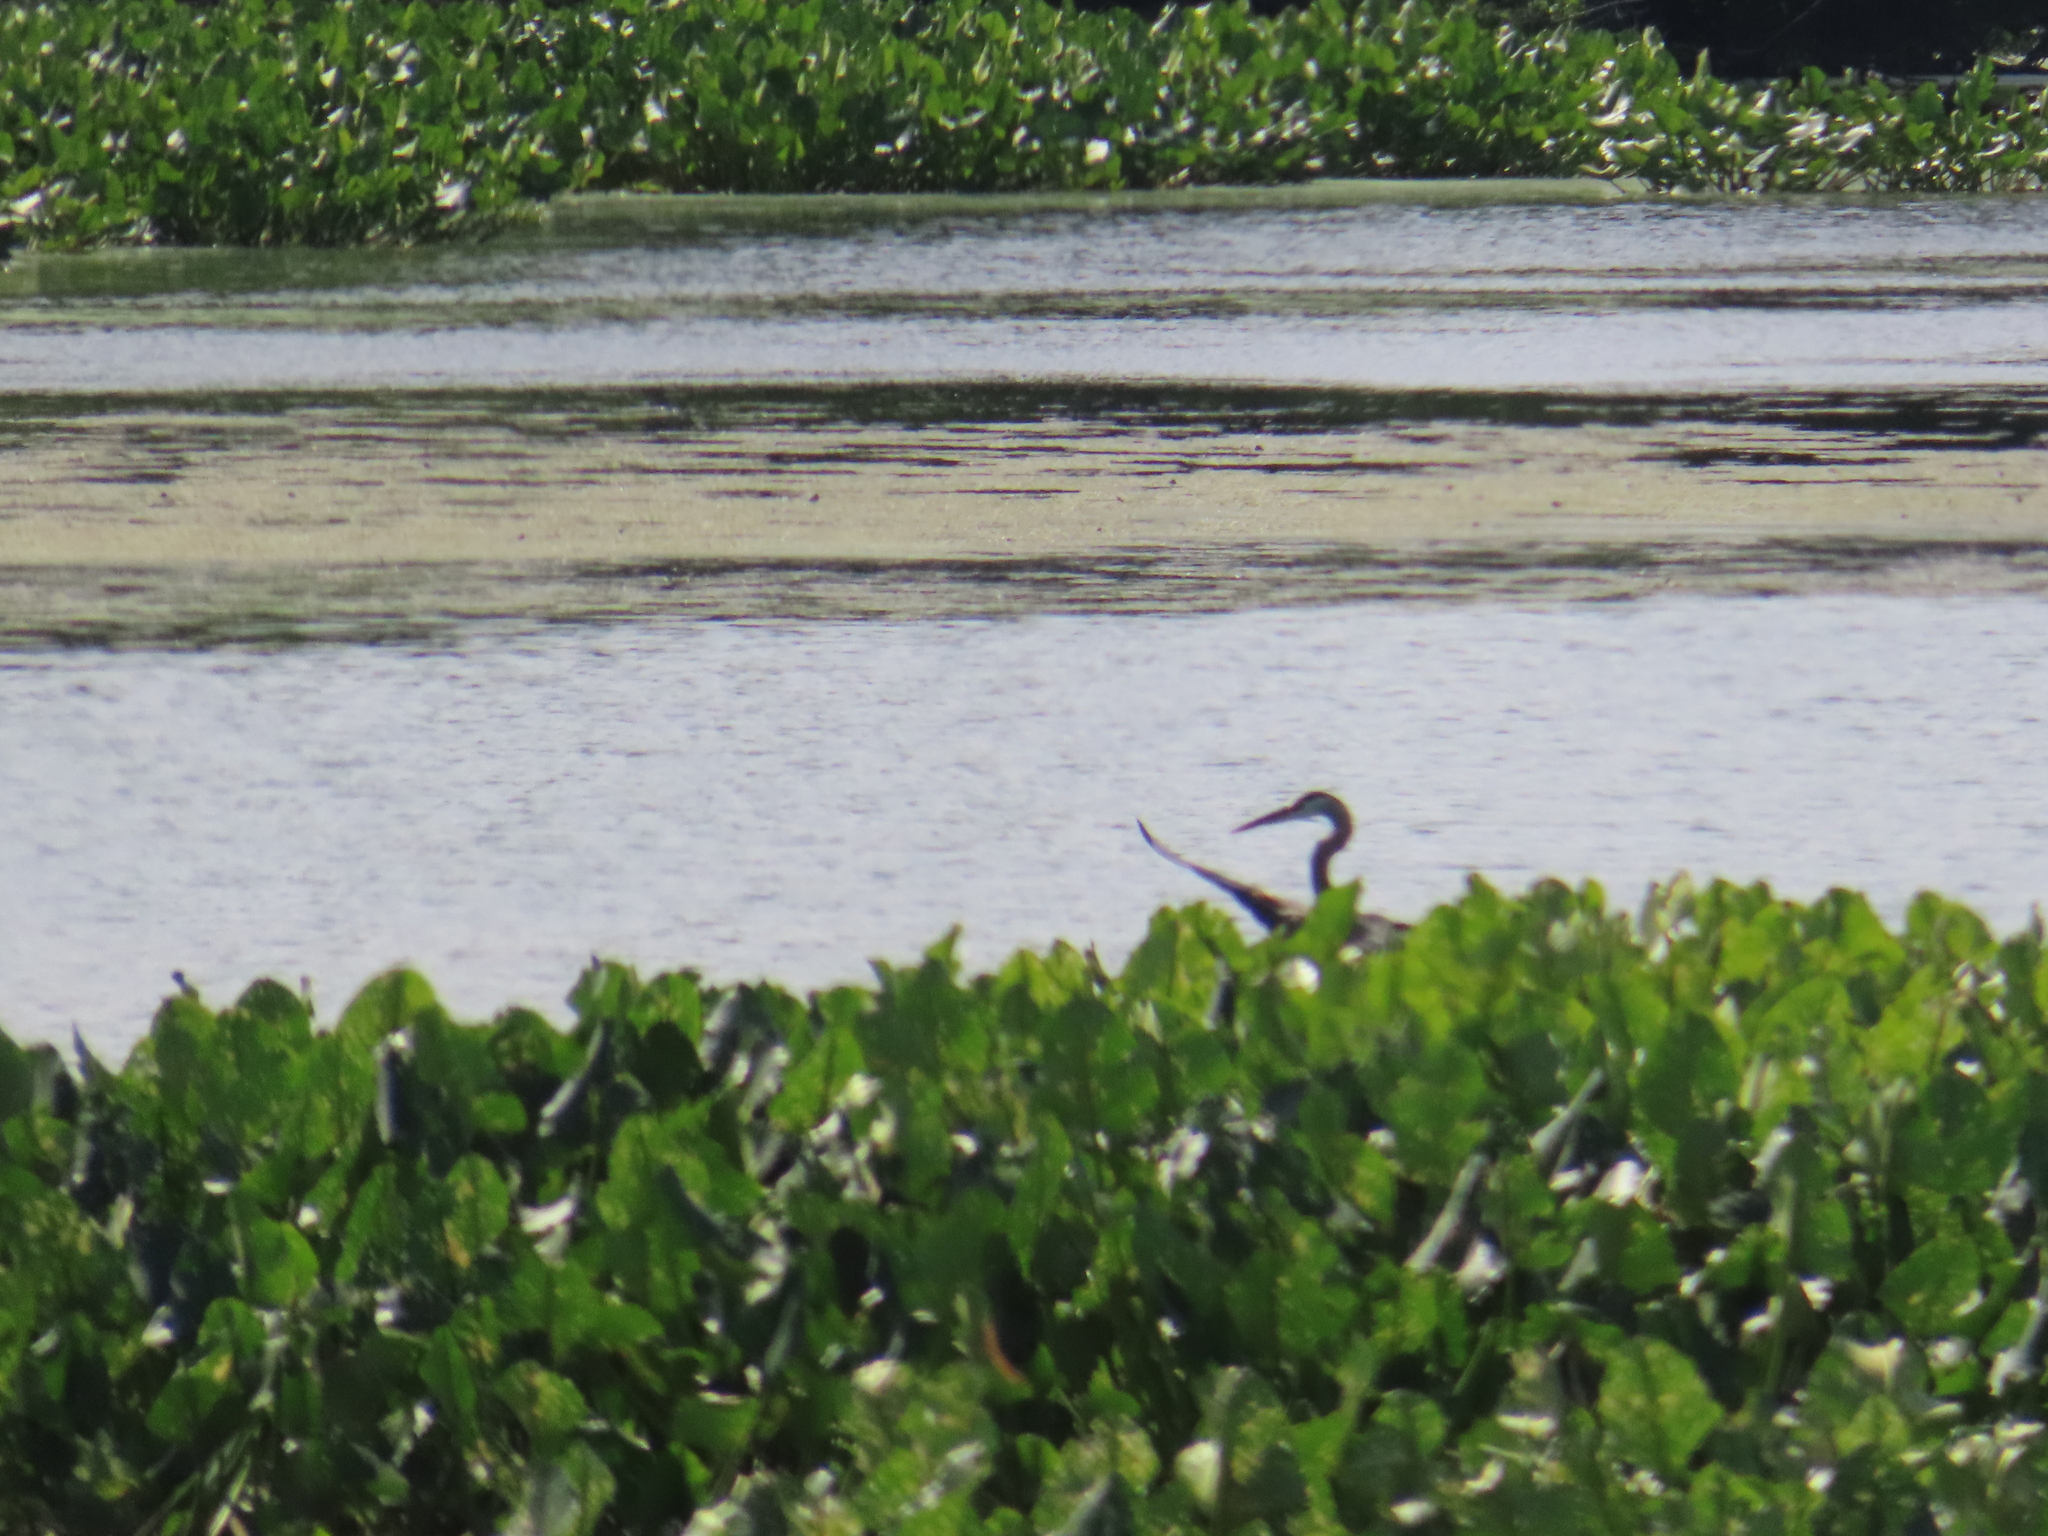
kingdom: Animalia
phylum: Chordata
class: Aves
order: Pelecaniformes
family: Ardeidae
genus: Ardea
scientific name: Ardea herodias
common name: Great blue heron
